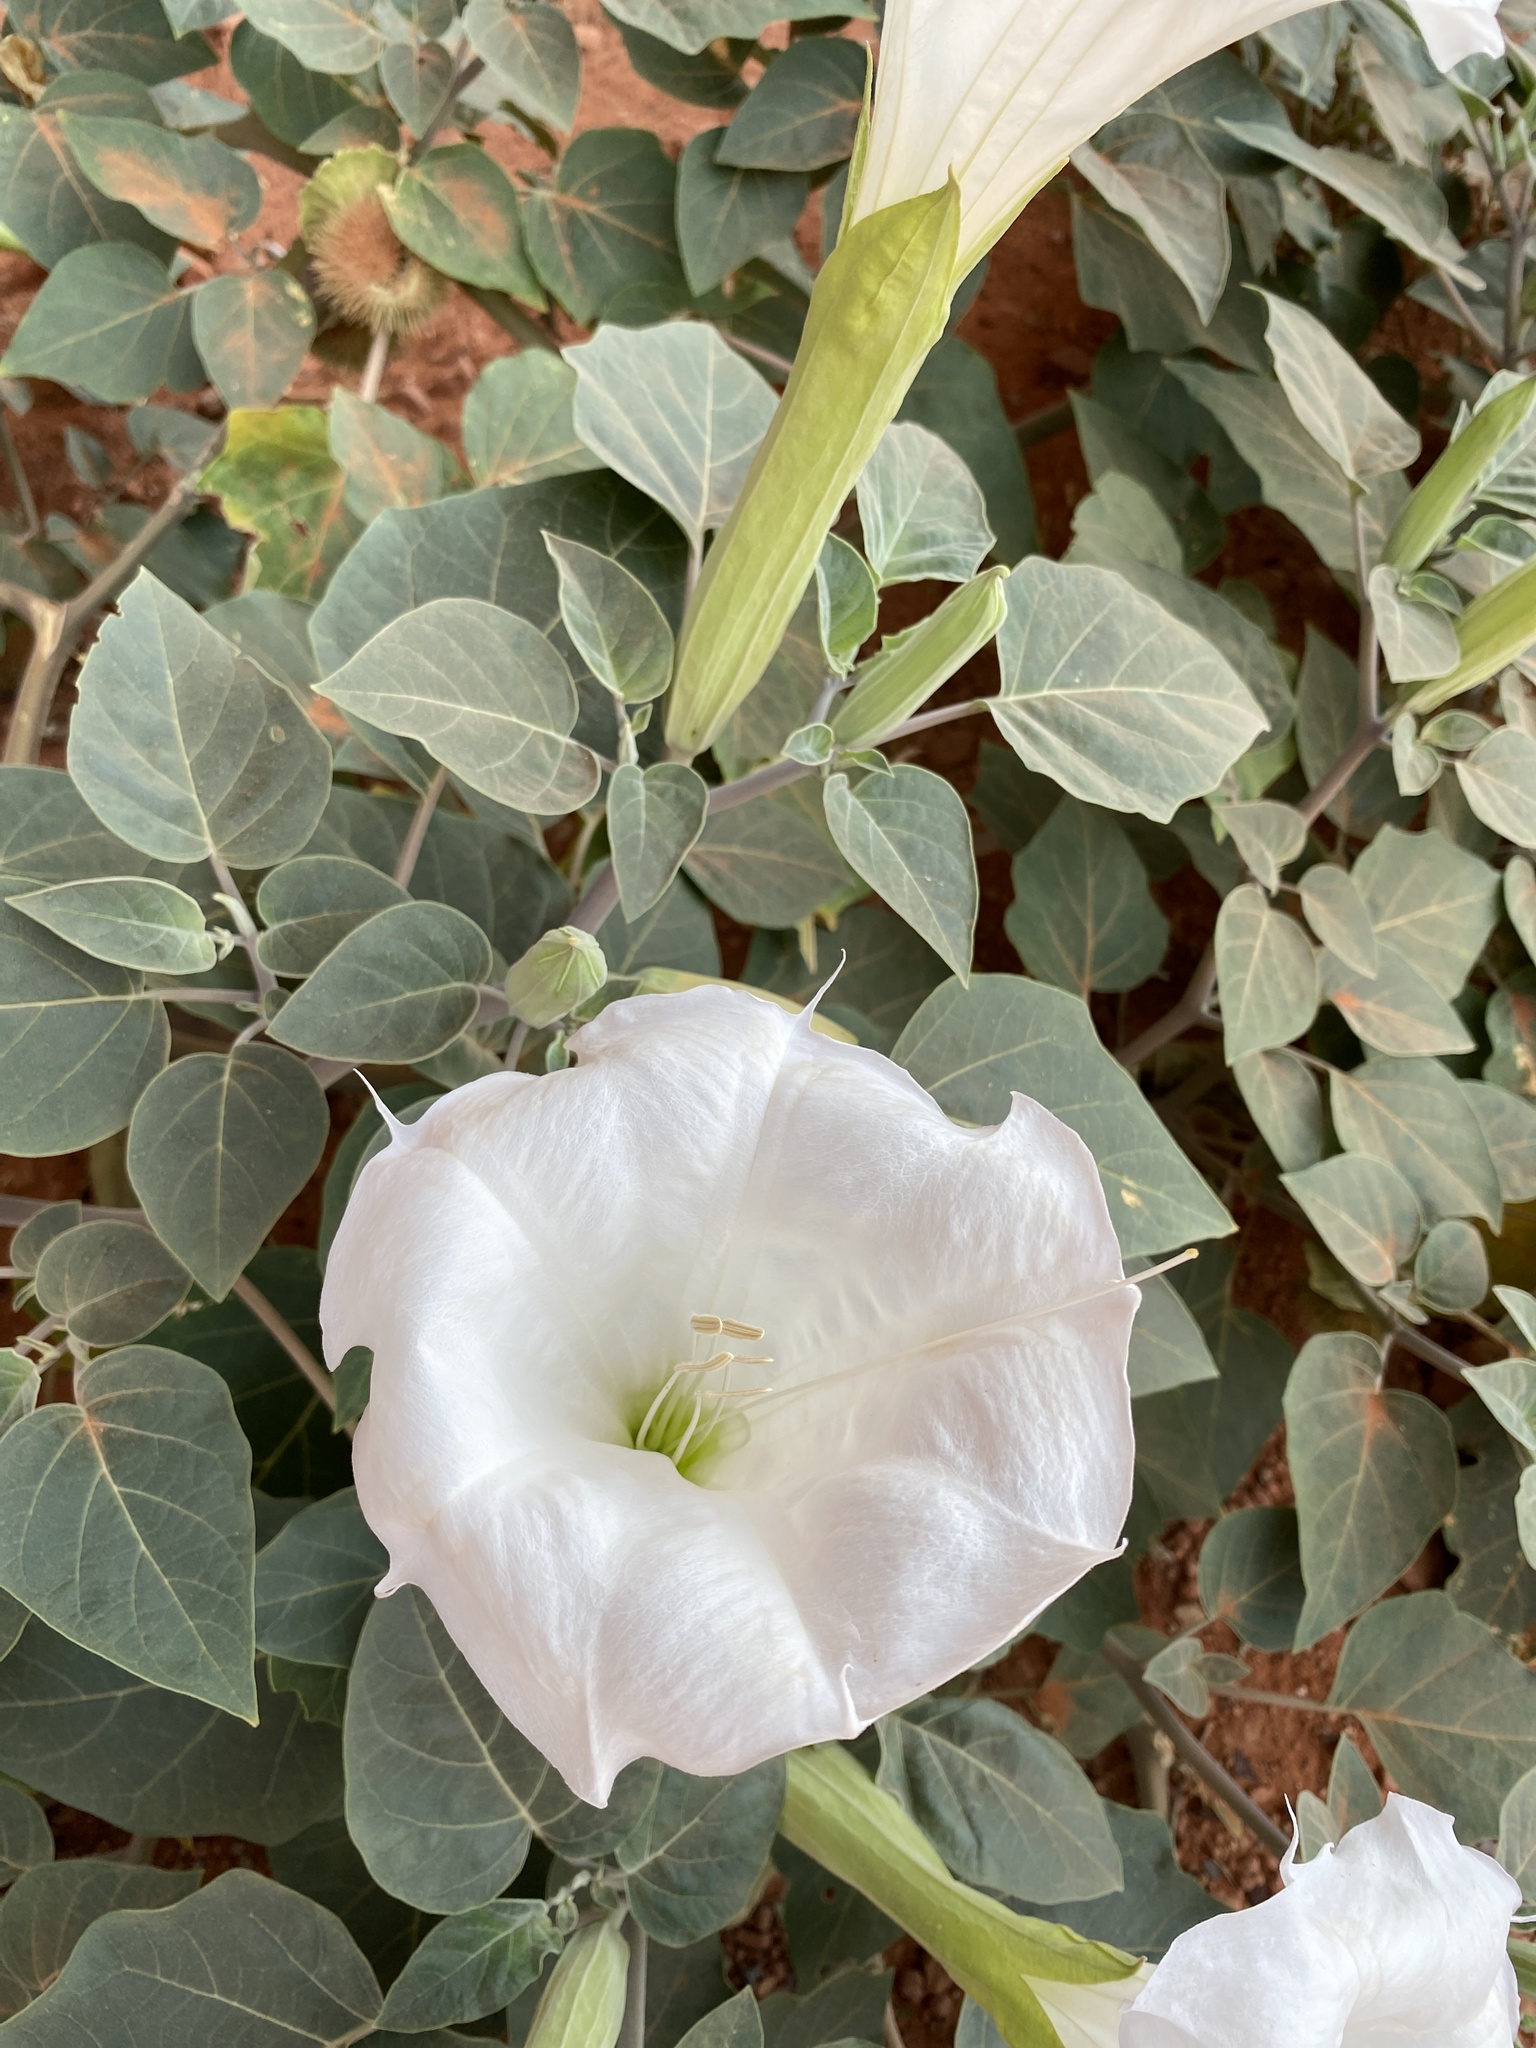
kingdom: Plantae
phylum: Tracheophyta
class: Magnoliopsida
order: Solanales
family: Solanaceae
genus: Datura
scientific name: Datura wrightii
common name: Sacred thorn-apple
